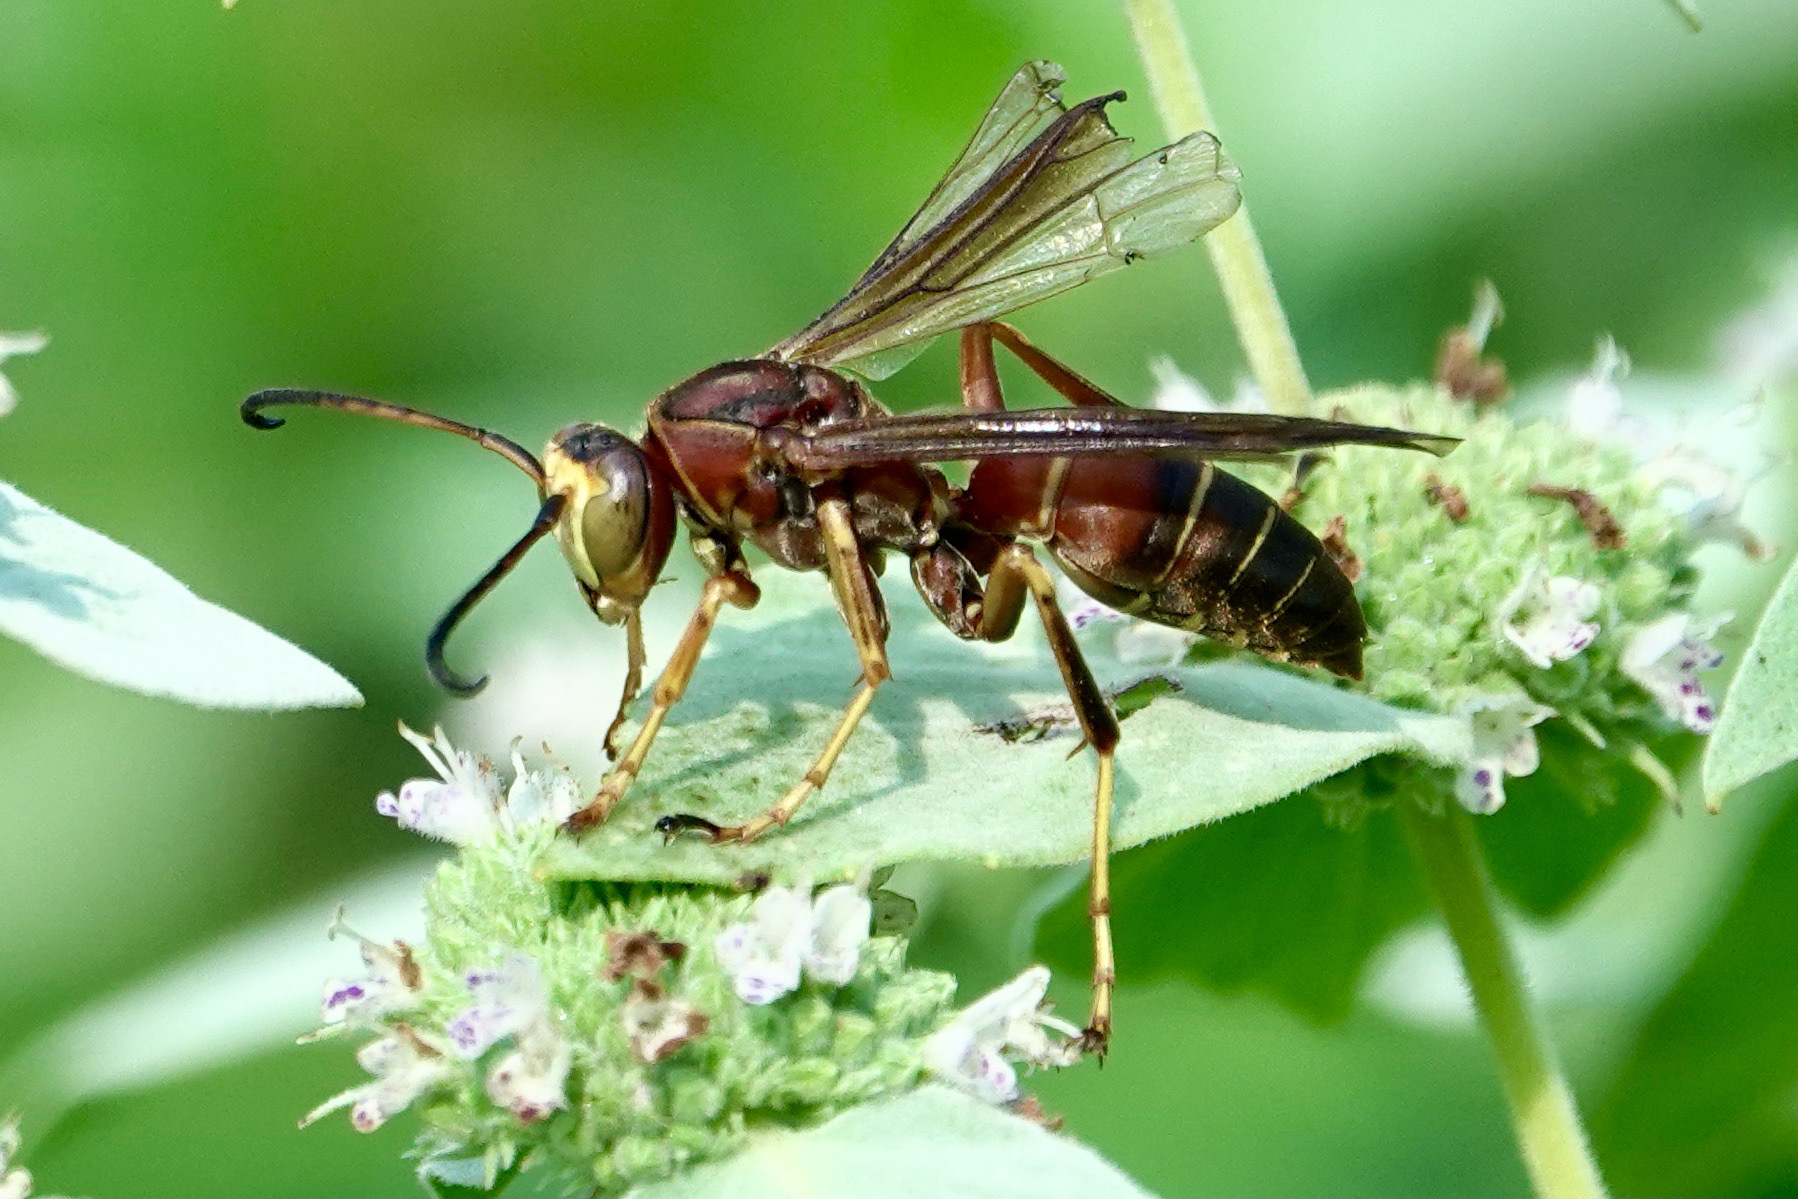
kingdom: Animalia
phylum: Arthropoda
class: Insecta
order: Hymenoptera
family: Eumenidae
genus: Polistes
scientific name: Polistes fuscatus
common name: Dark paper wasp
